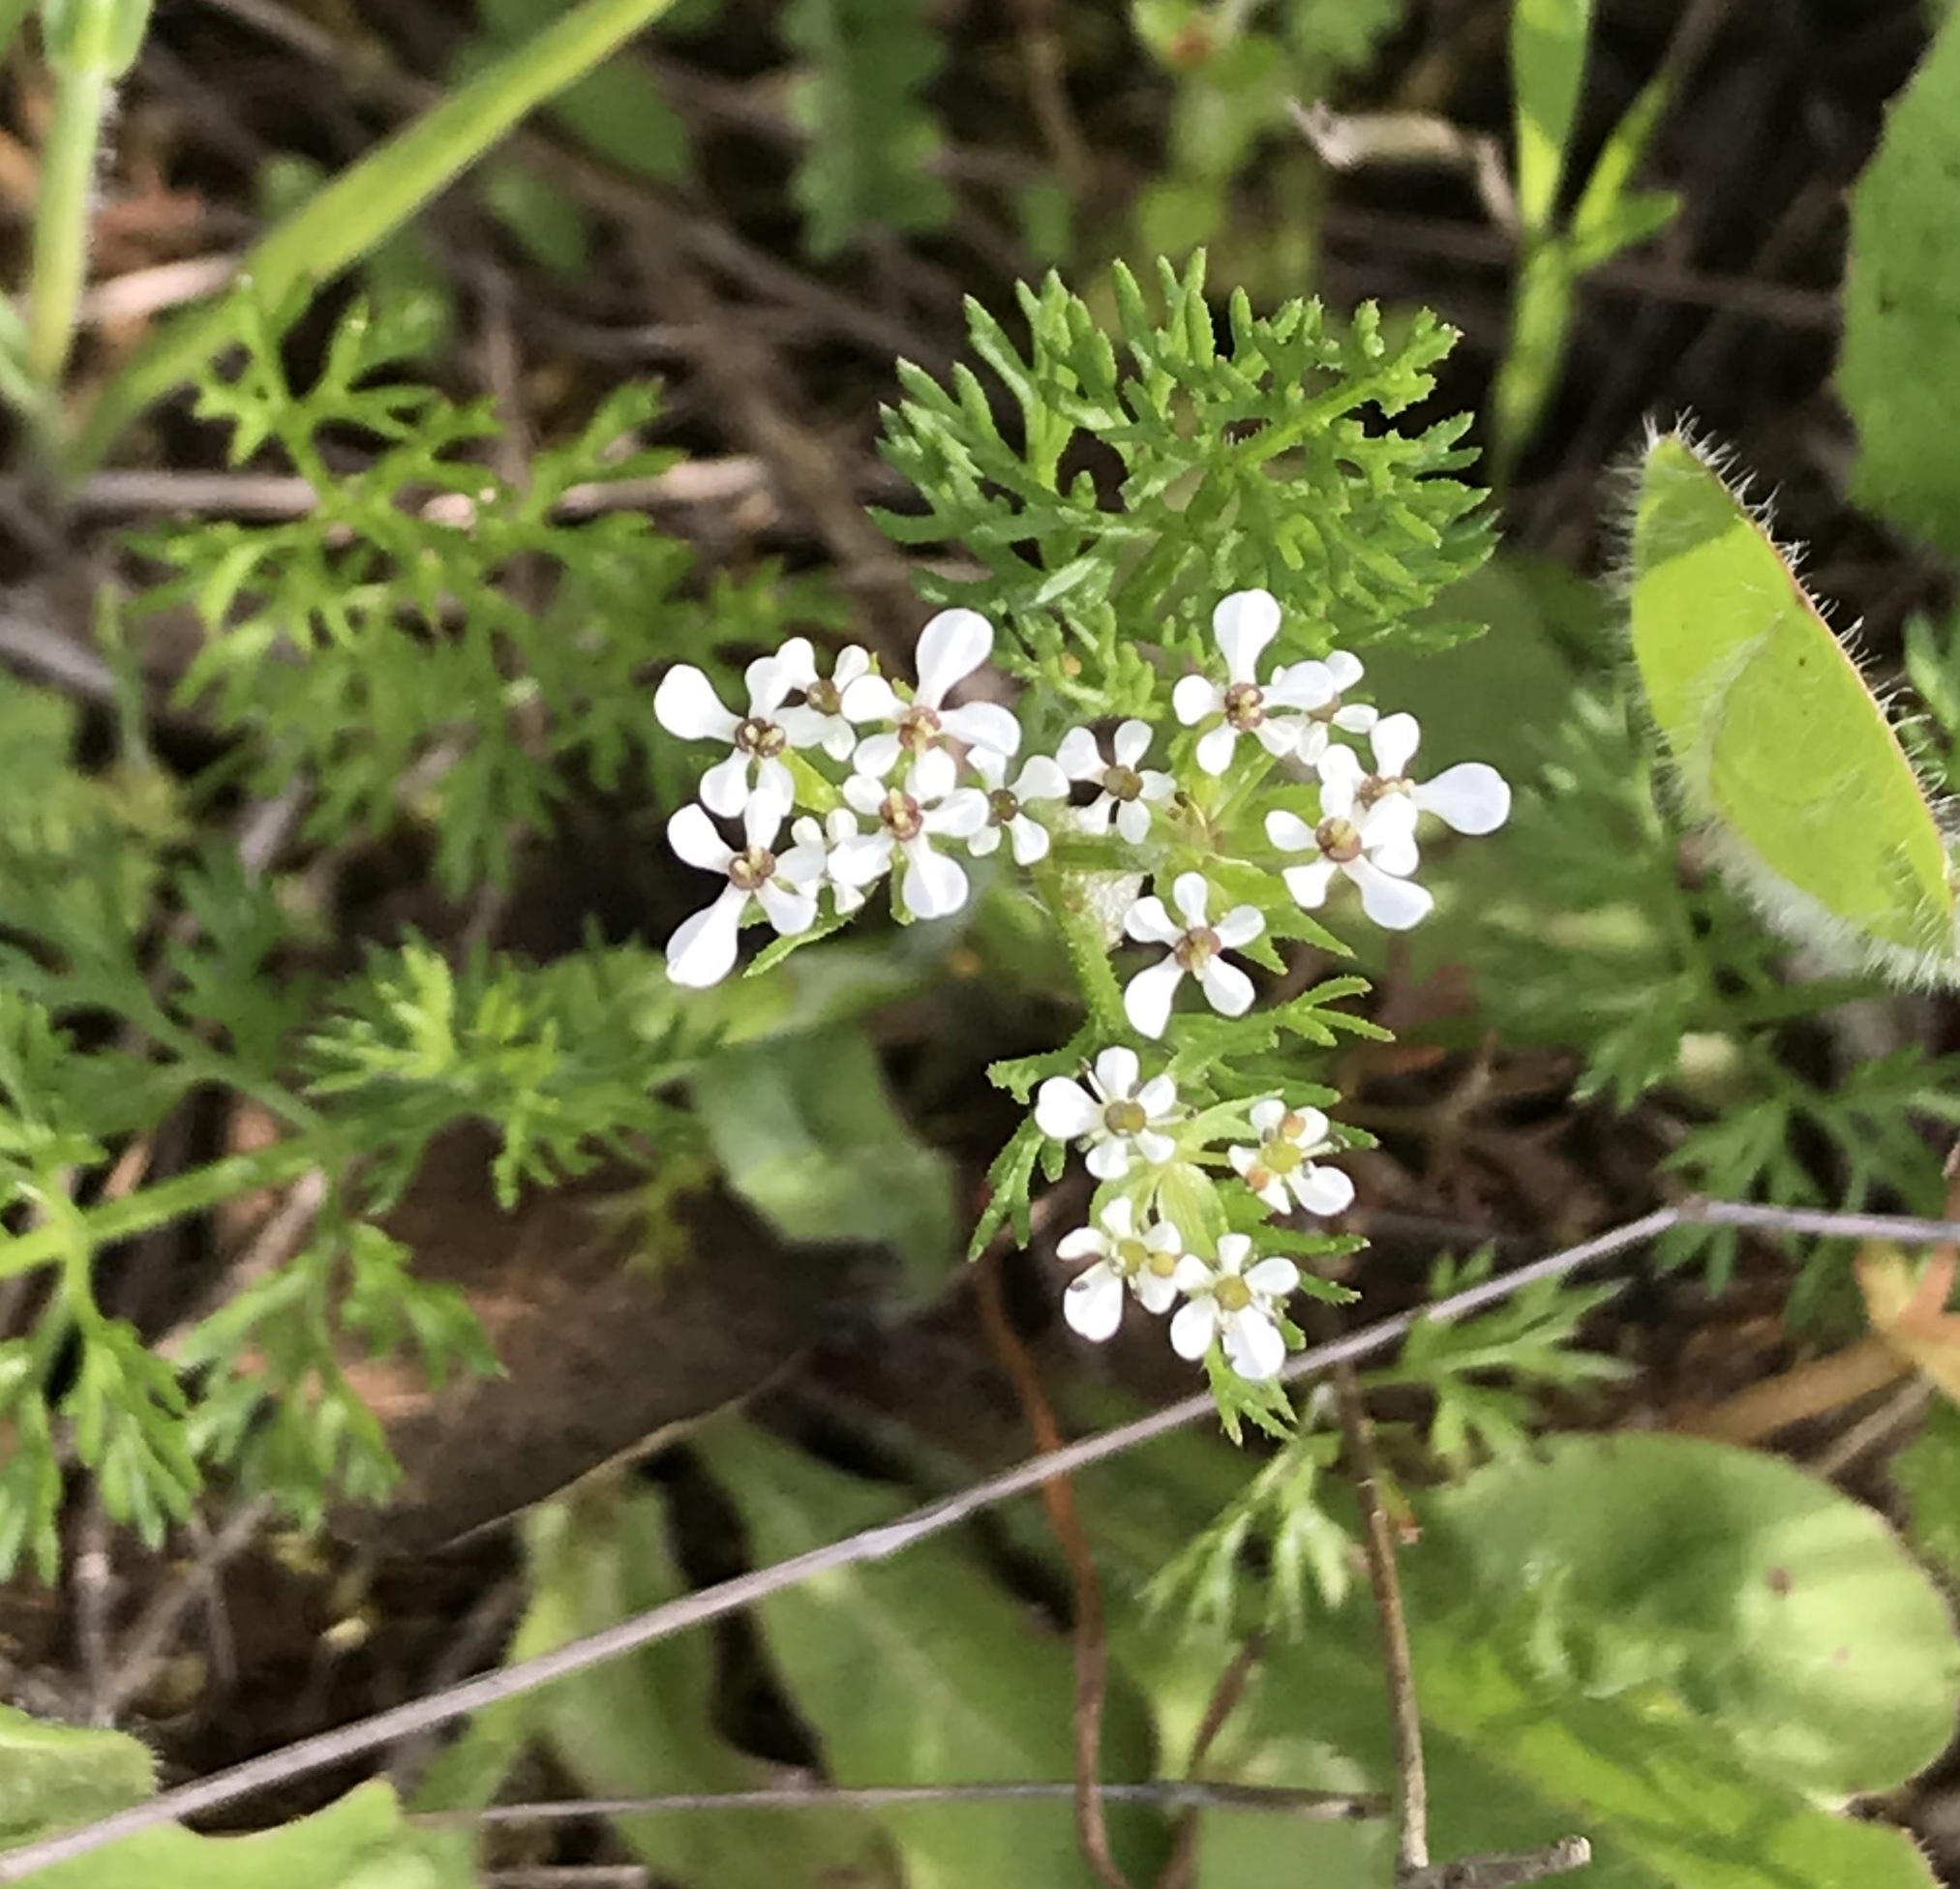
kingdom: Plantae
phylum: Tracheophyta
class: Magnoliopsida
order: Apiales
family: Apiaceae
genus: Scandix
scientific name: Scandix pecten-veneris
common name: Shepherd's-needle
